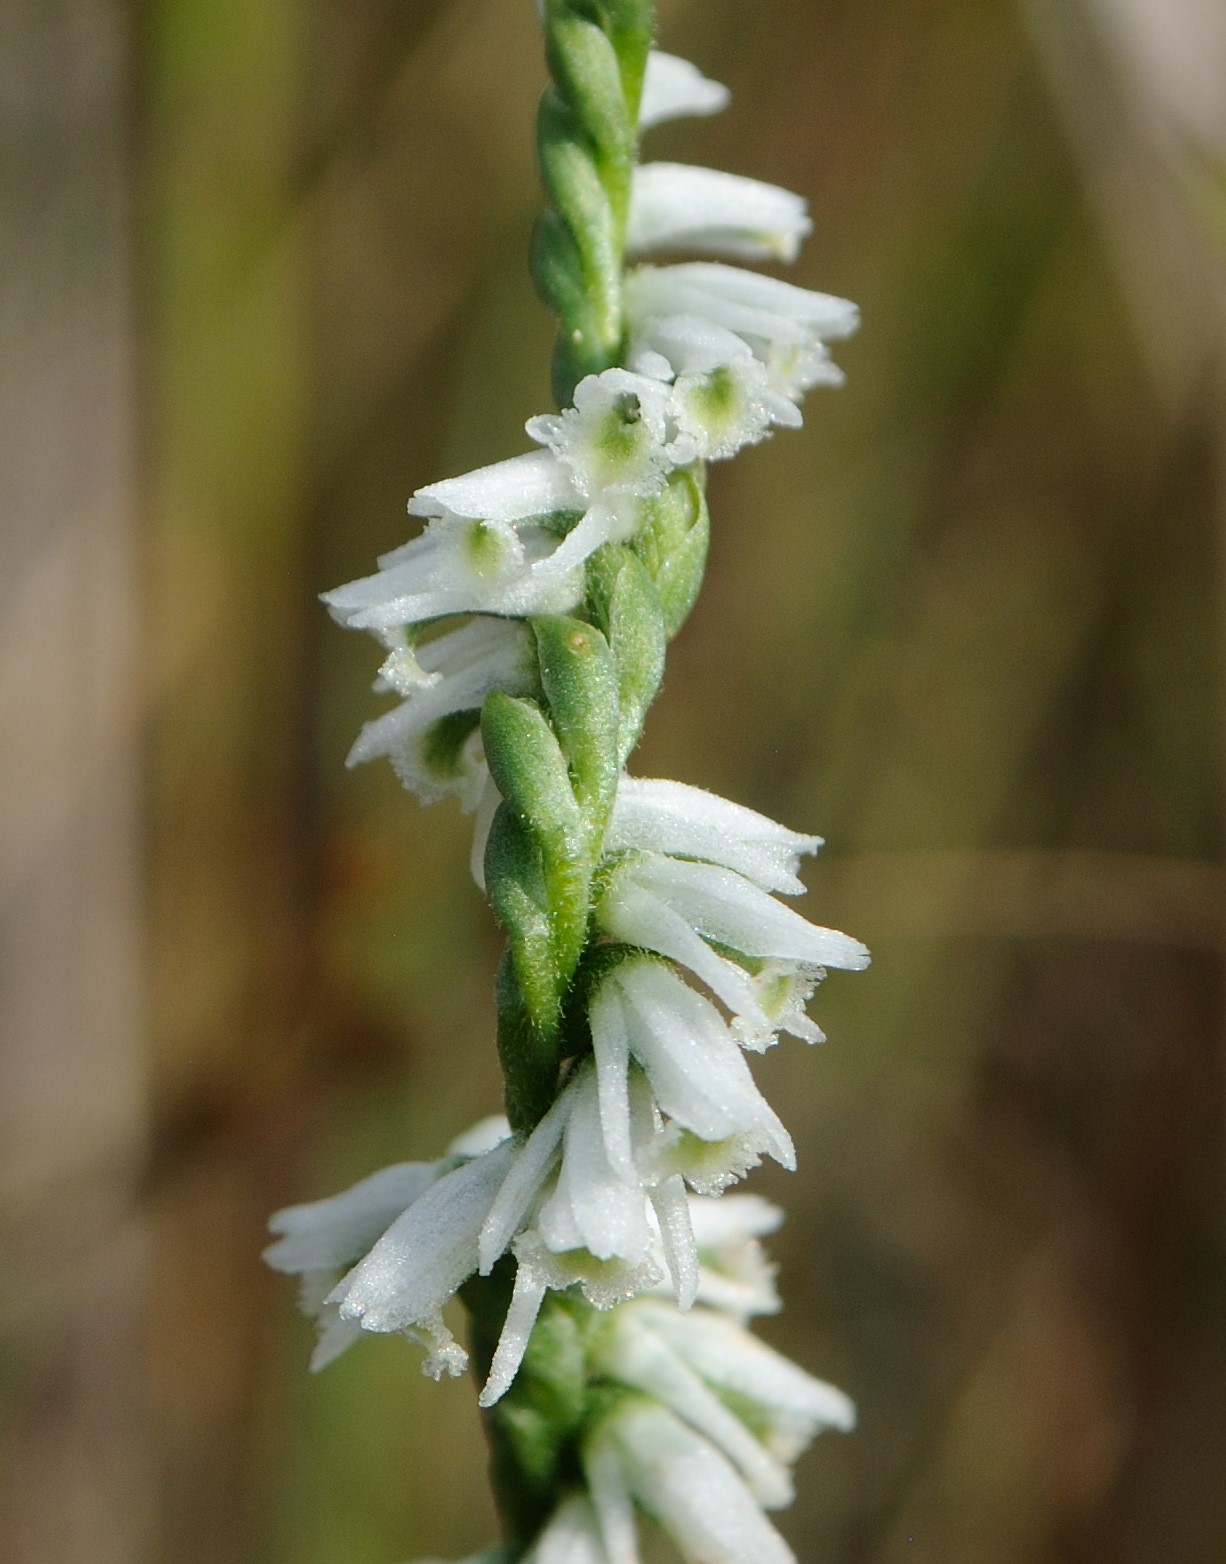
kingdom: Plantae
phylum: Tracheophyta
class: Liliopsida
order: Asparagales
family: Orchidaceae
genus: Spiranthes
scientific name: Spiranthes lacera
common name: Northern slender ladies'-tresses
